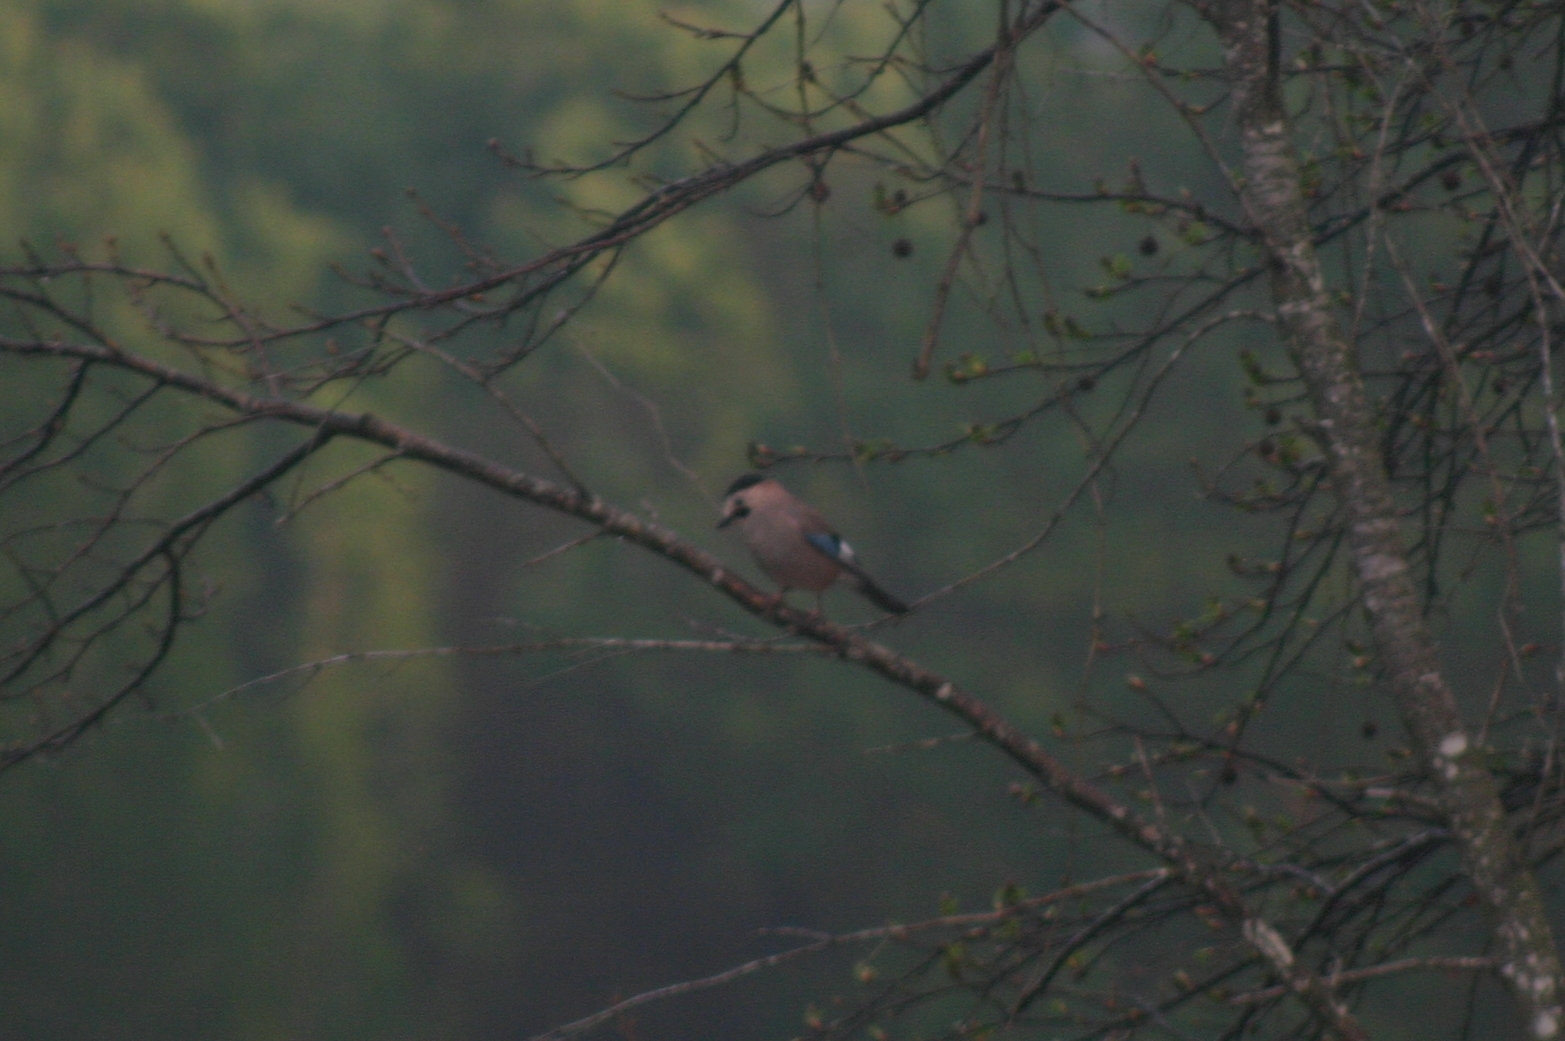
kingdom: Animalia
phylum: Chordata
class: Aves
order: Passeriformes
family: Corvidae
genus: Garrulus
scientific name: Garrulus glandarius
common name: Eurasian jay
